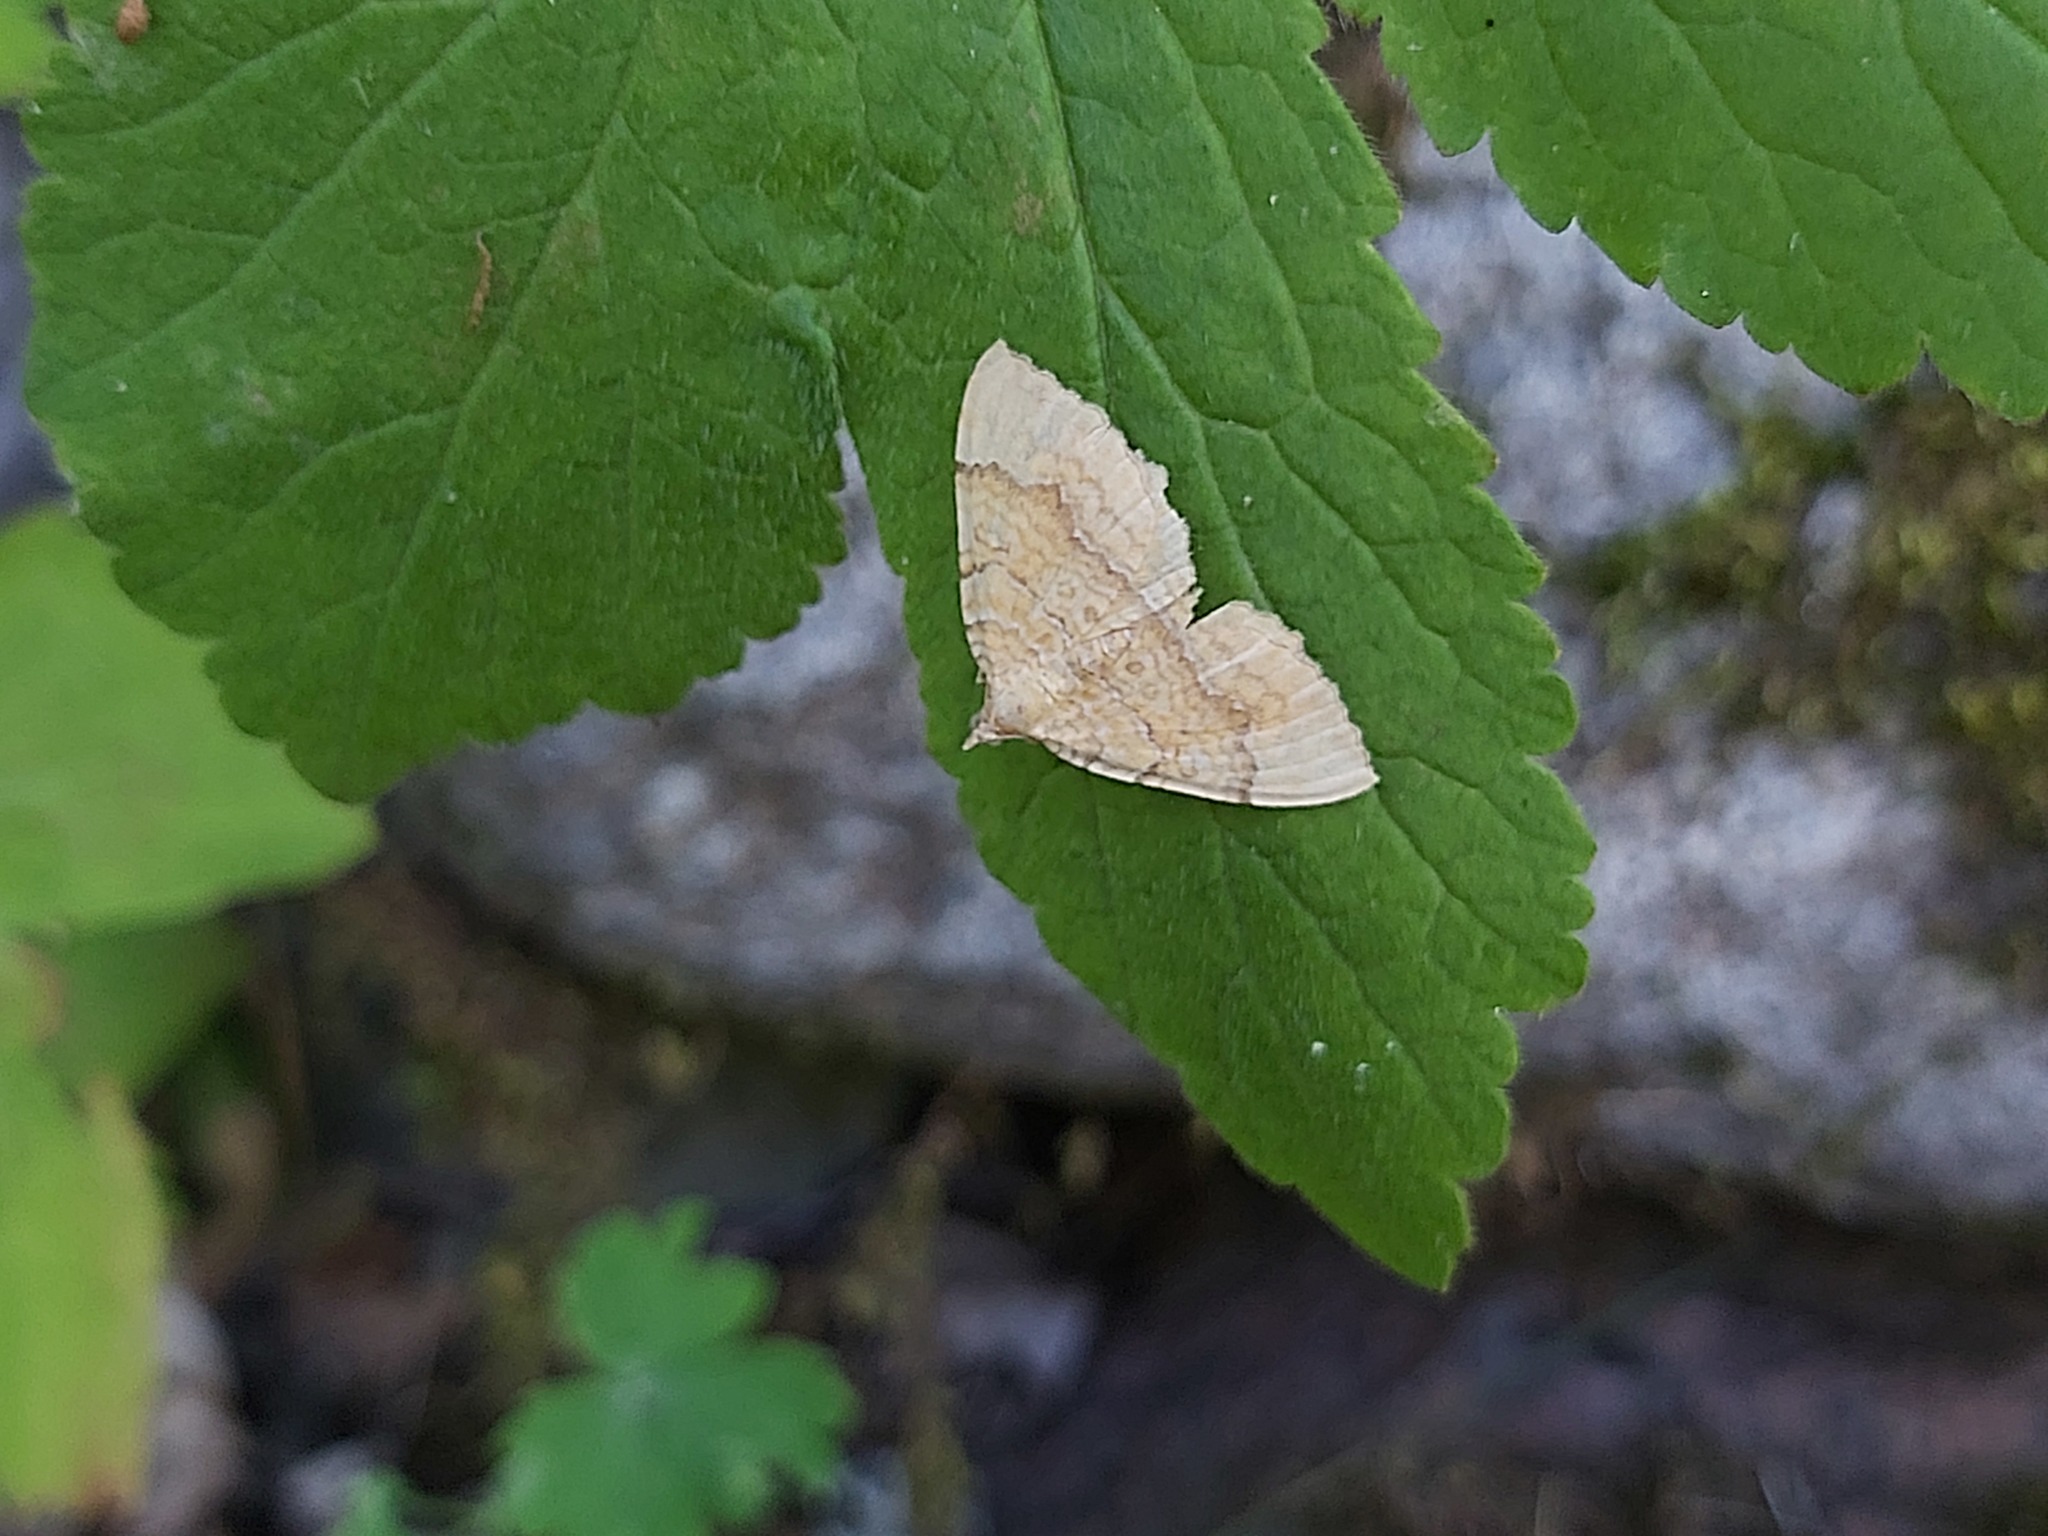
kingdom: Animalia
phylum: Arthropoda
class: Insecta
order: Lepidoptera
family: Geometridae
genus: Camptogramma
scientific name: Camptogramma bilineata
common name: Yellow shell
